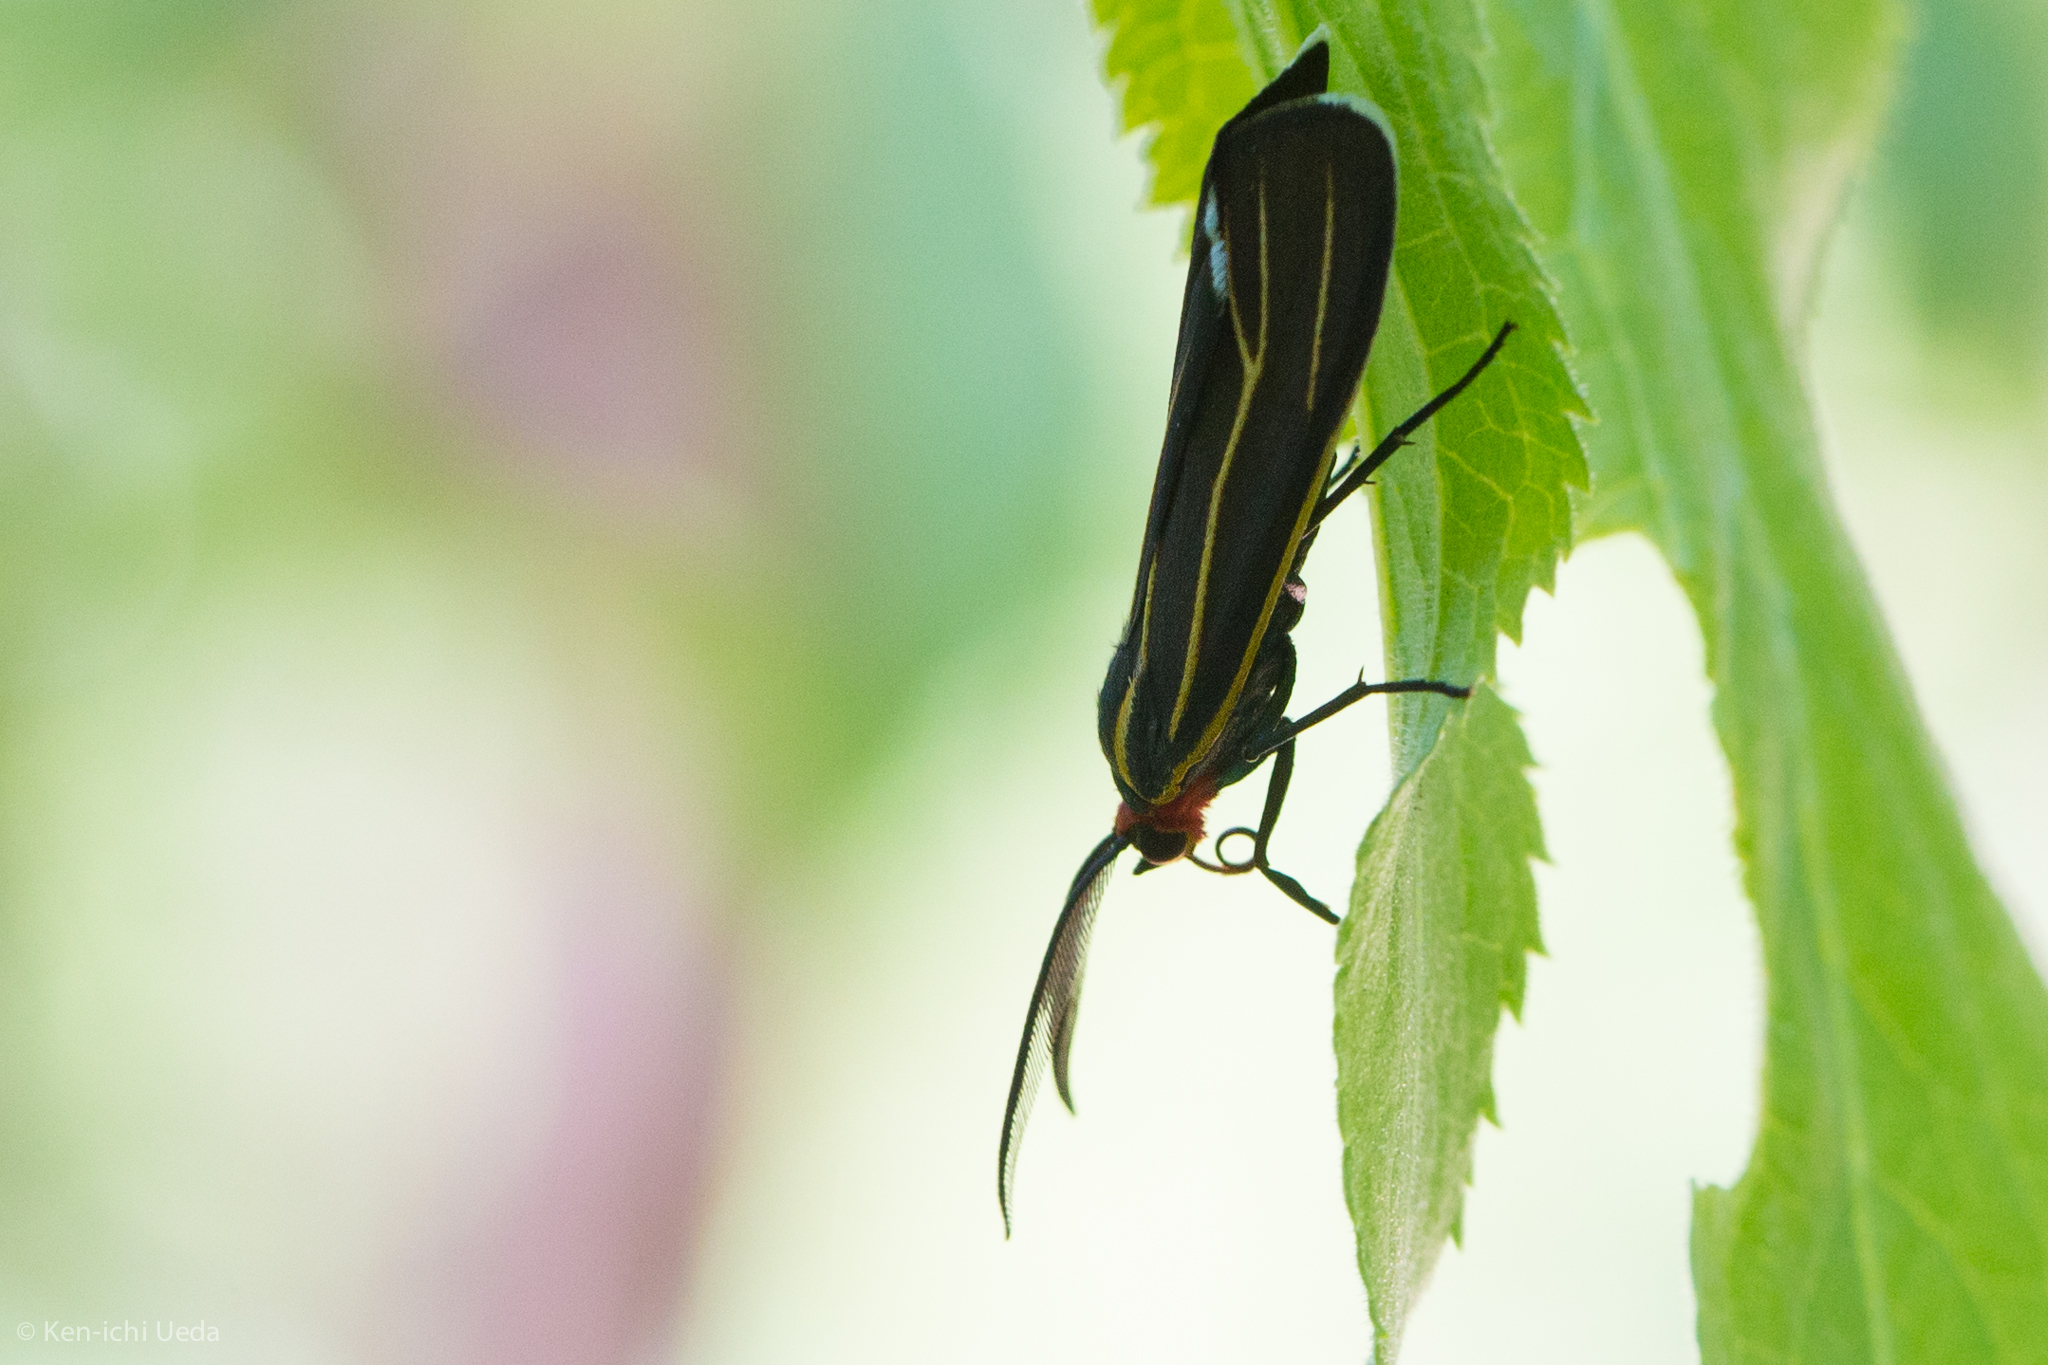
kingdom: Animalia
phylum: Arthropoda
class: Insecta
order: Lepidoptera
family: Erebidae
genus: Ctenucha
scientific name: Ctenucha venosa
